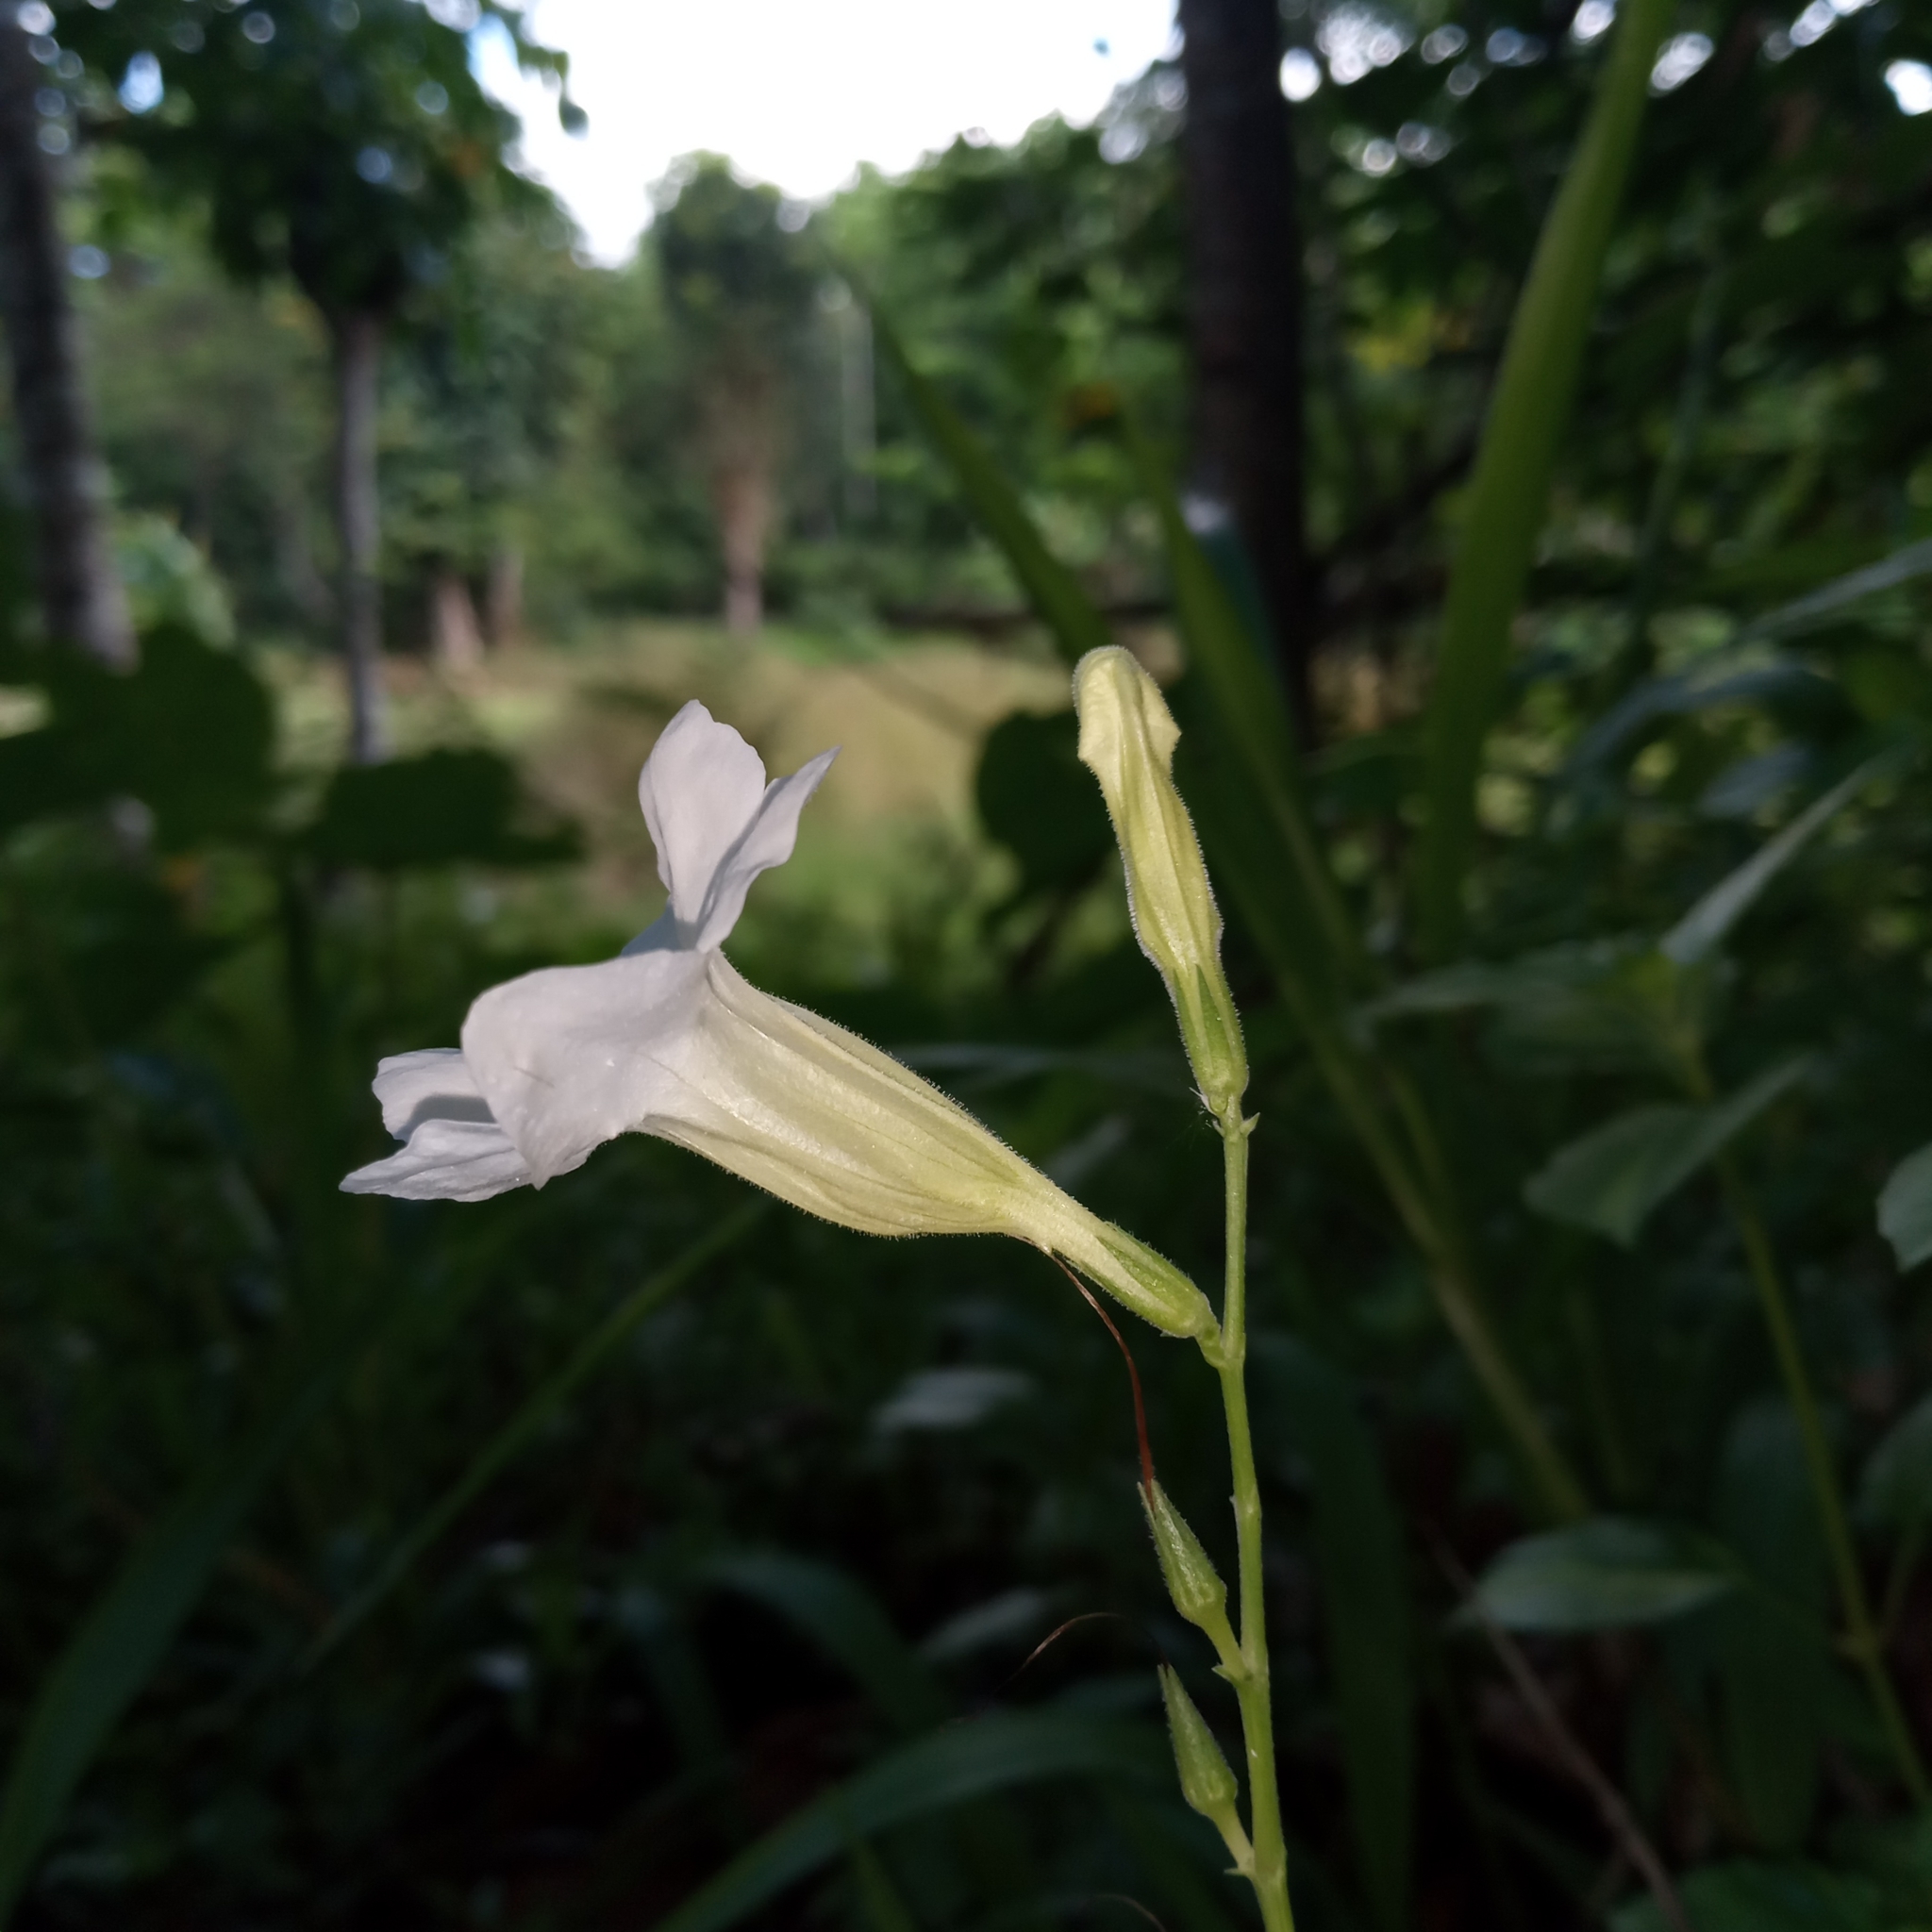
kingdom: Plantae
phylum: Tracheophyta
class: Magnoliopsida
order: Lamiales
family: Acanthaceae
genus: Asystasia
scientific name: Asystasia gangetica
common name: Chinese violet
